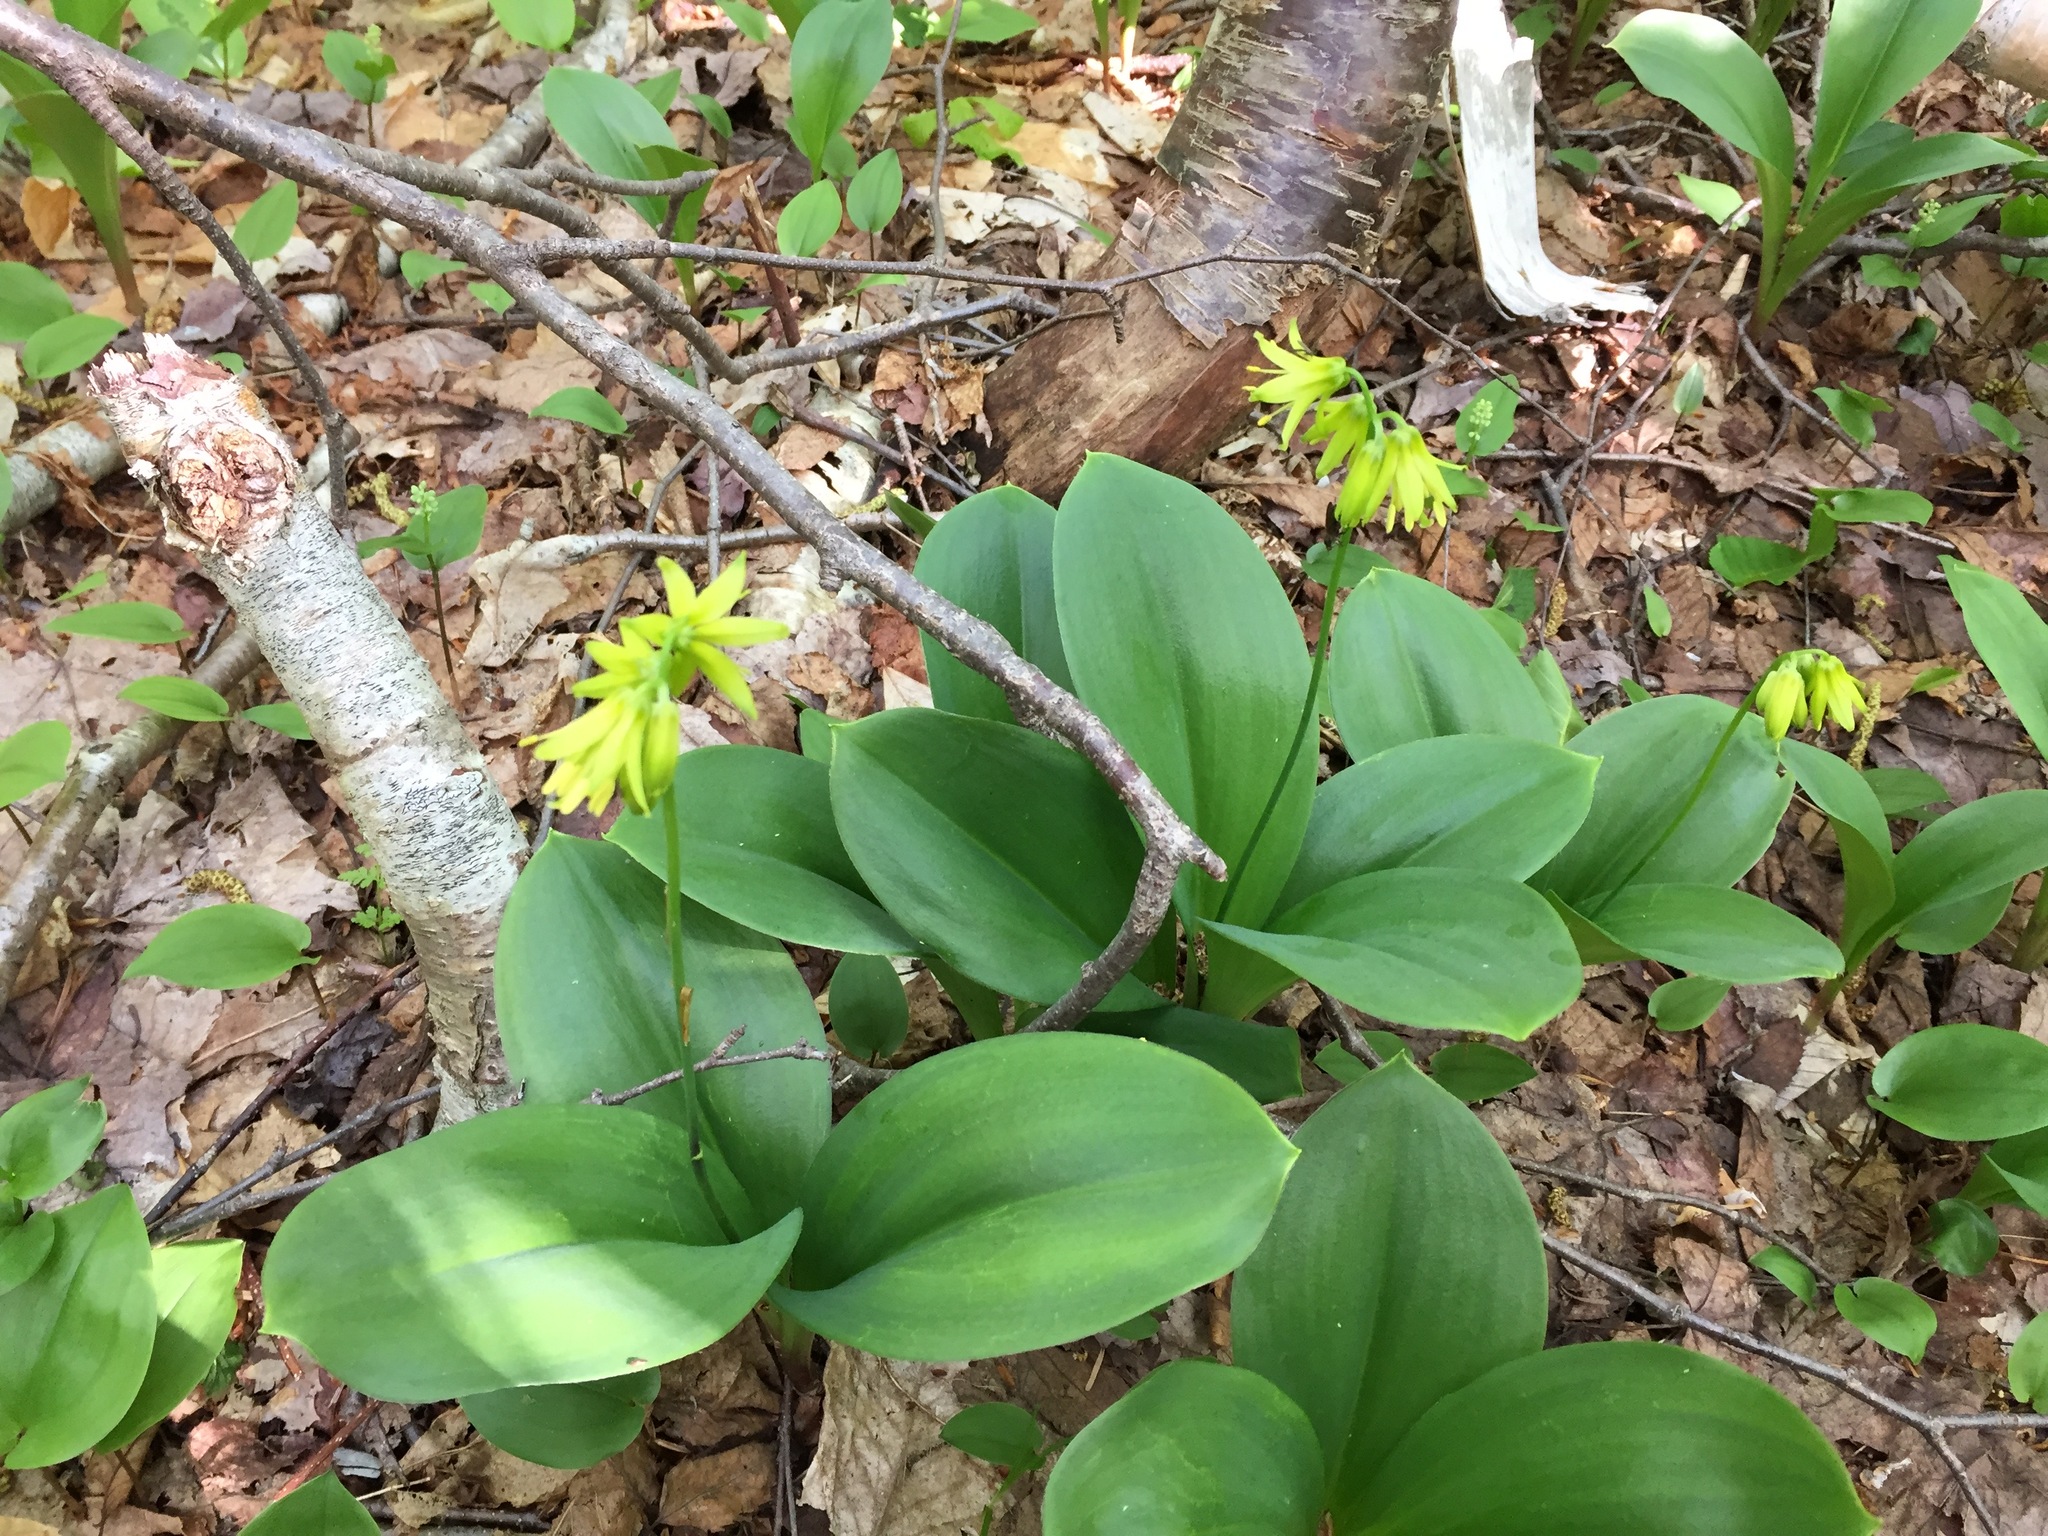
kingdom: Plantae
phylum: Tracheophyta
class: Liliopsida
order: Liliales
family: Liliaceae
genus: Clintonia
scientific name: Clintonia borealis
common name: Yellow clintonia
